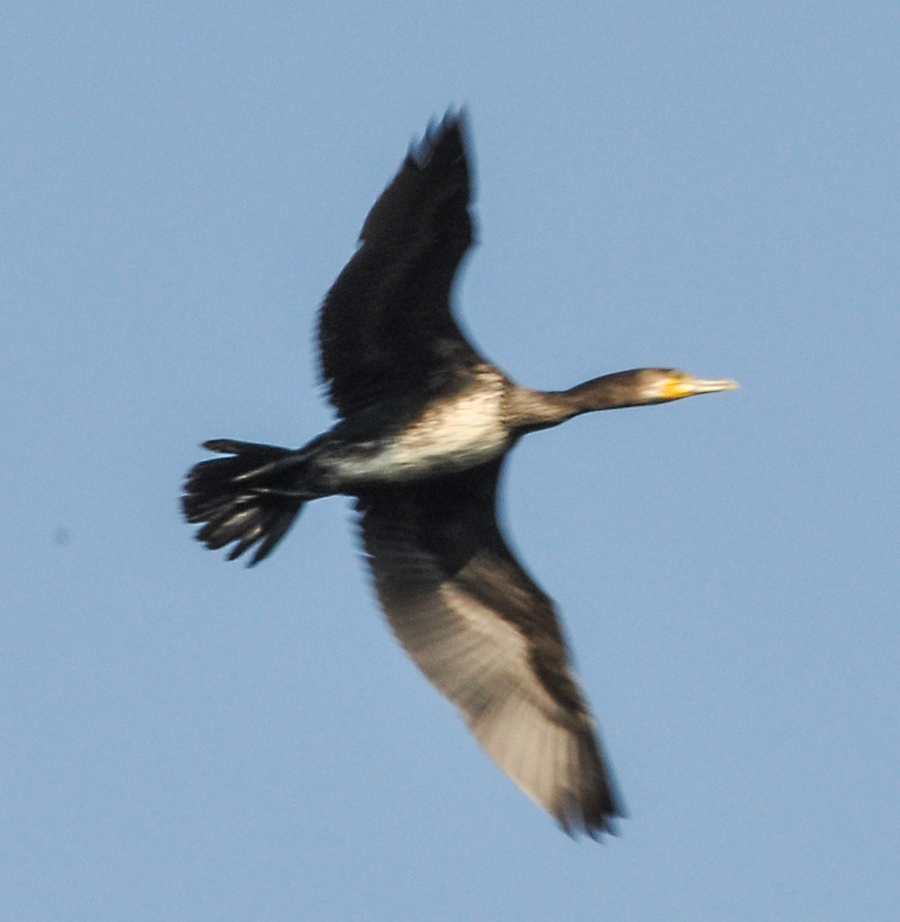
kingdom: Animalia
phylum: Chordata
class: Aves
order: Suliformes
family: Phalacrocoracidae
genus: Phalacrocorax
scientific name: Phalacrocorax carbo
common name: Great cormorant
